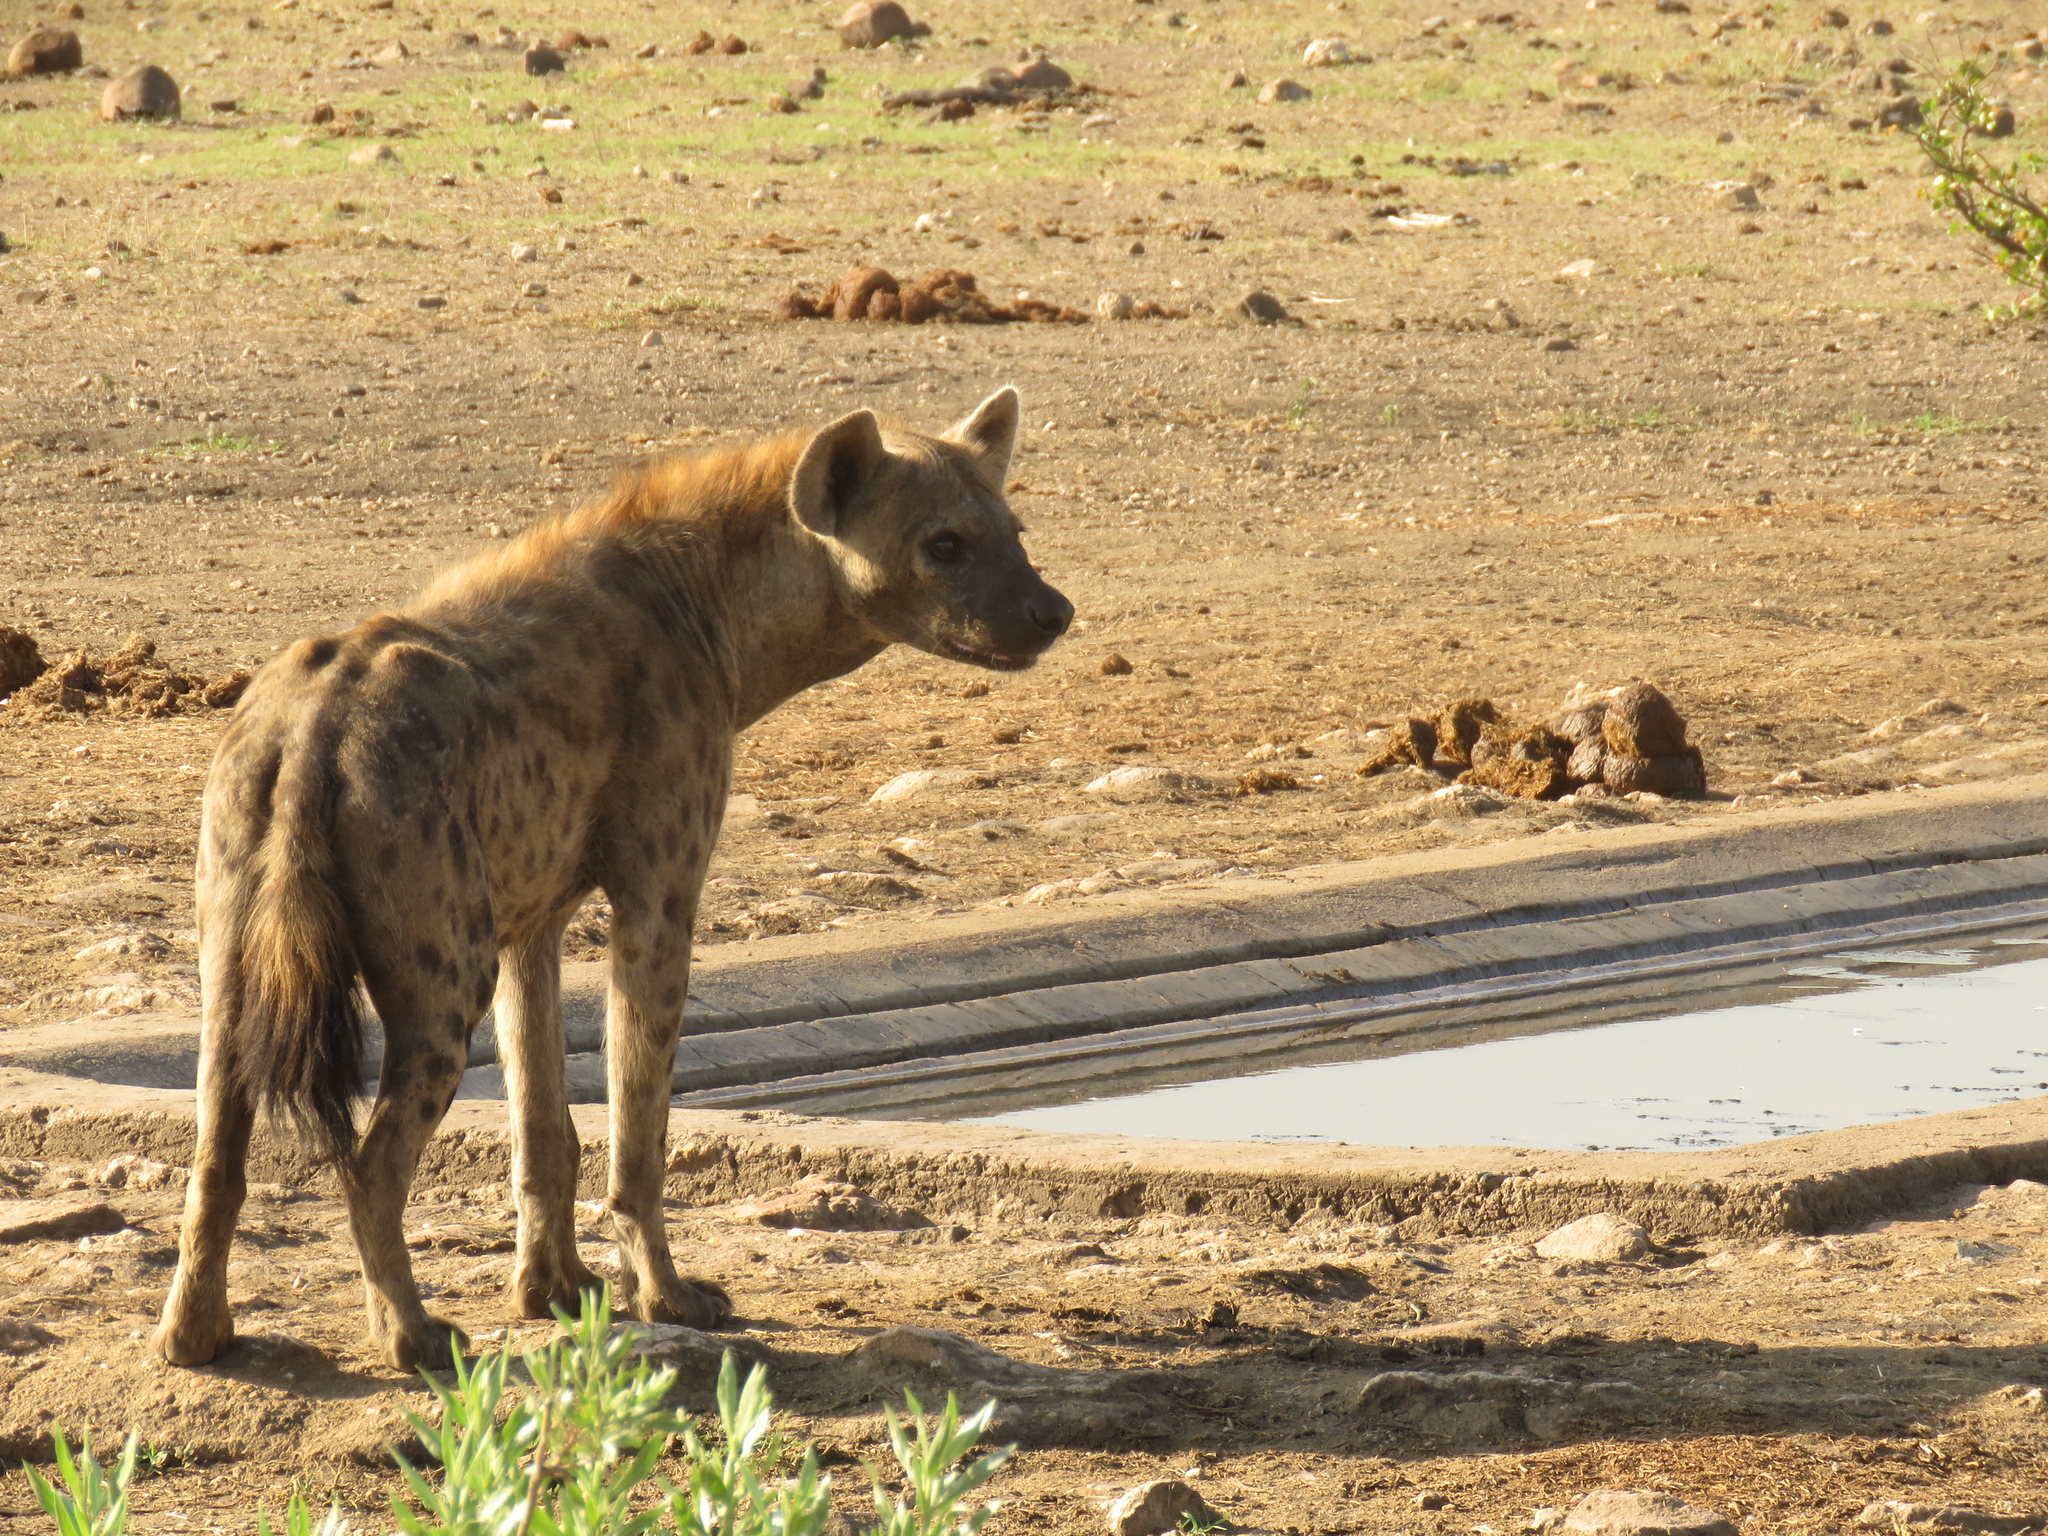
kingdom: Animalia
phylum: Chordata
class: Mammalia
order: Carnivora
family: Hyaenidae
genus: Crocuta
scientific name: Crocuta crocuta
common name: Spotted hyaena
